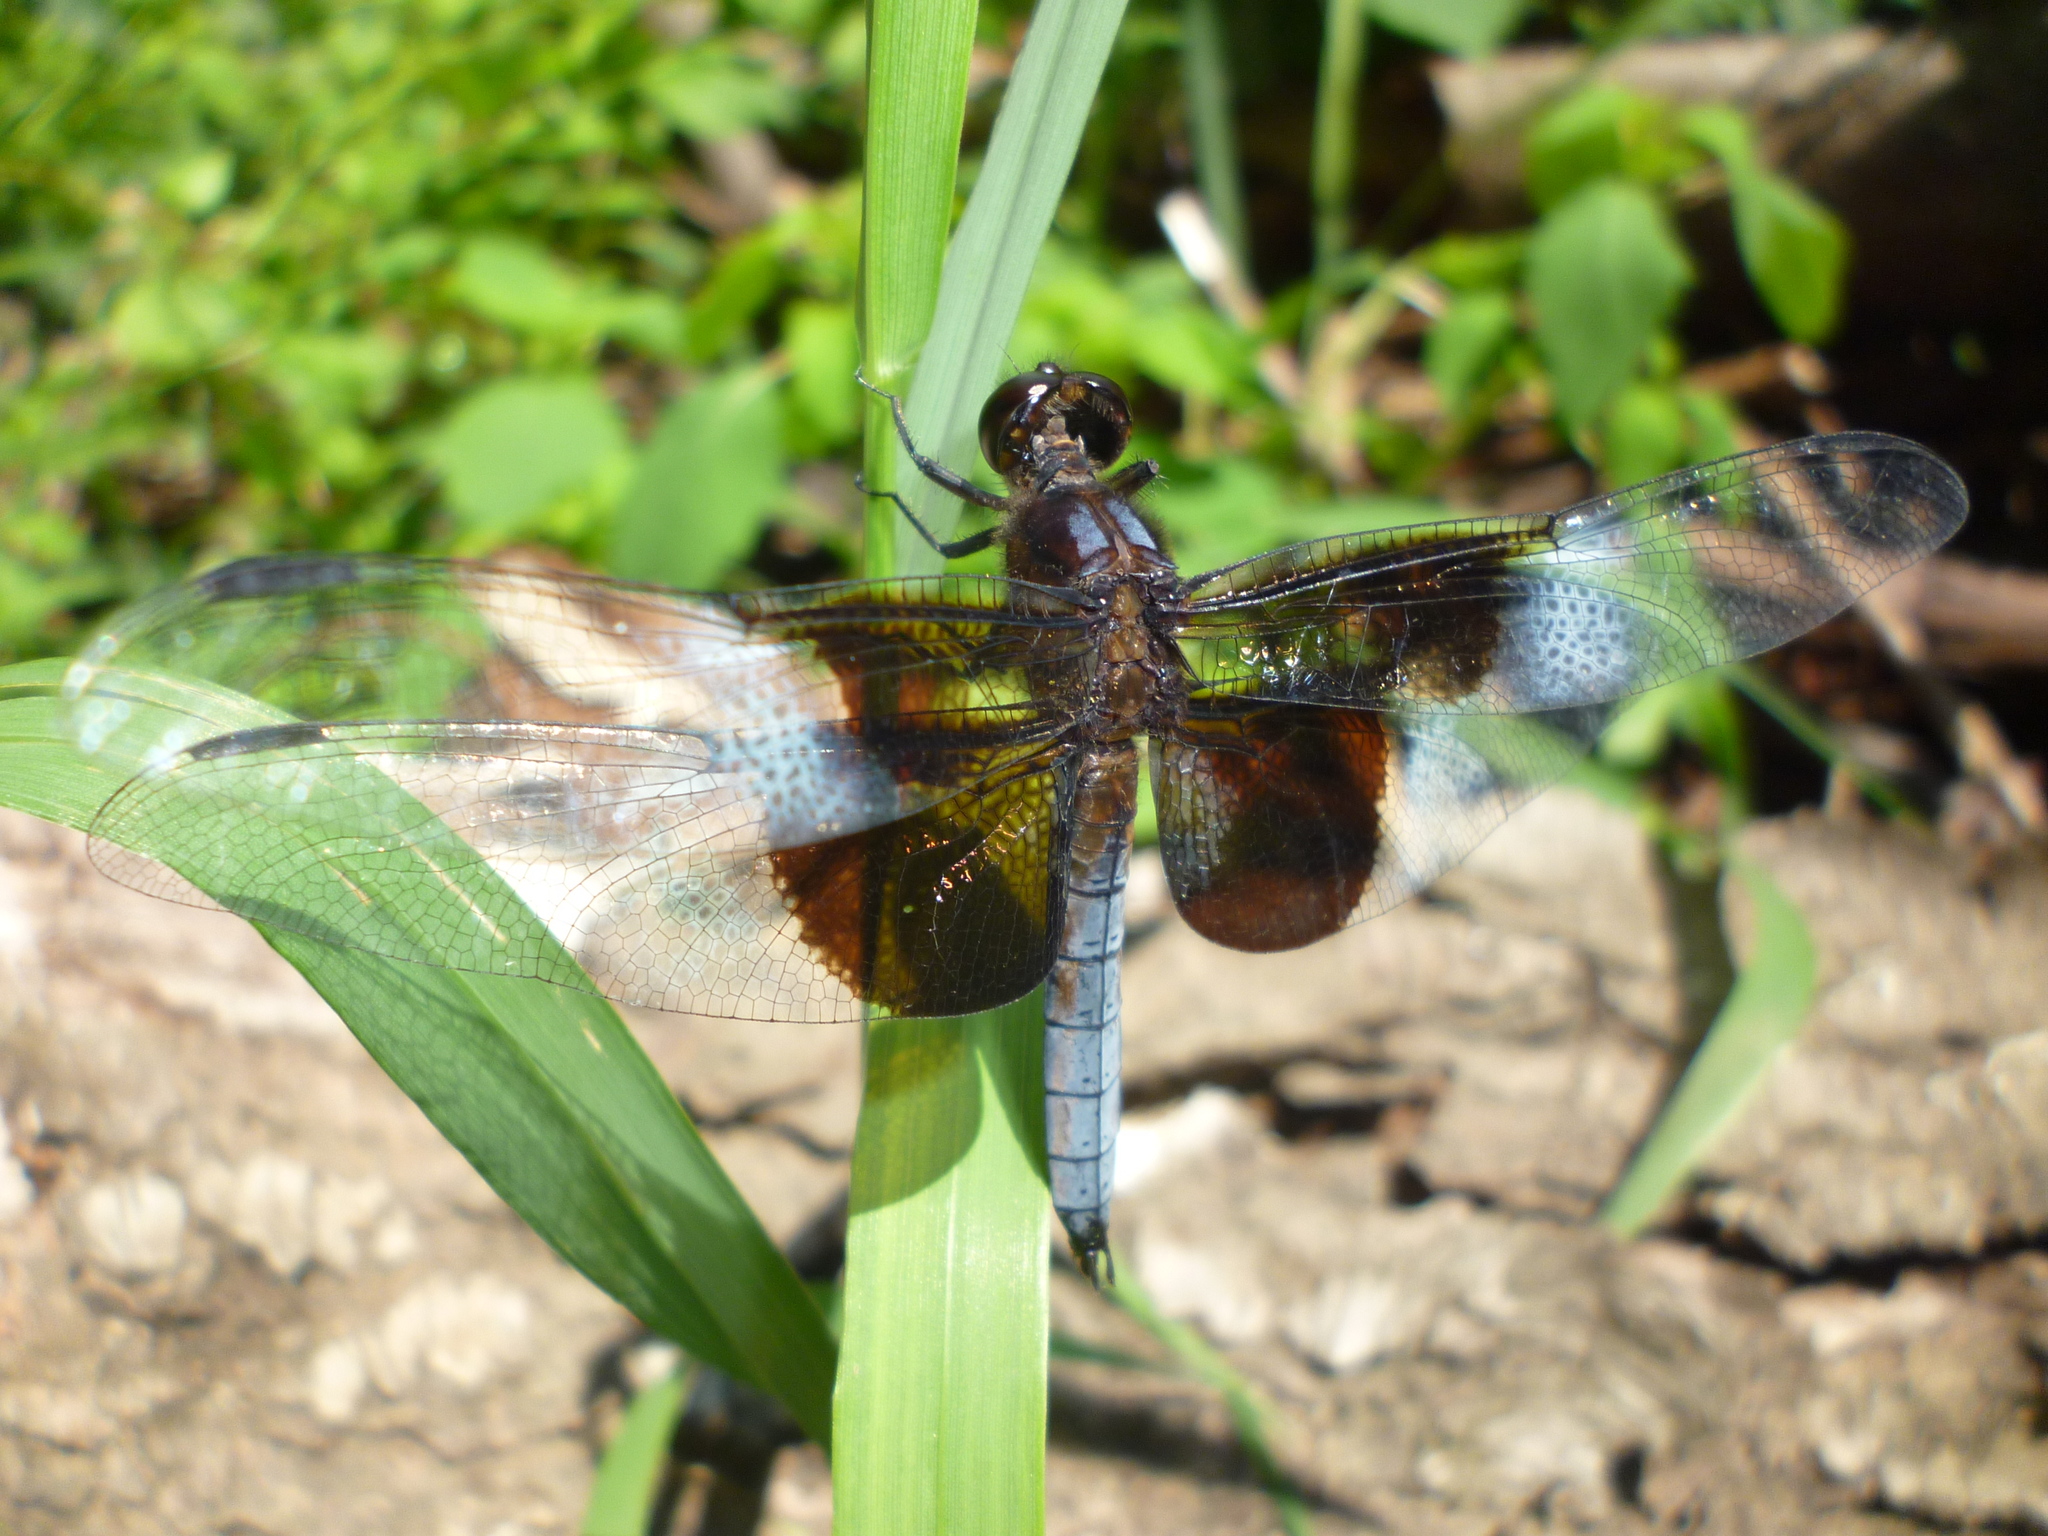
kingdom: Animalia
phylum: Arthropoda
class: Insecta
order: Odonata
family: Libellulidae
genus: Libellula
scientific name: Libellula luctuosa
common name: Widow skimmer
